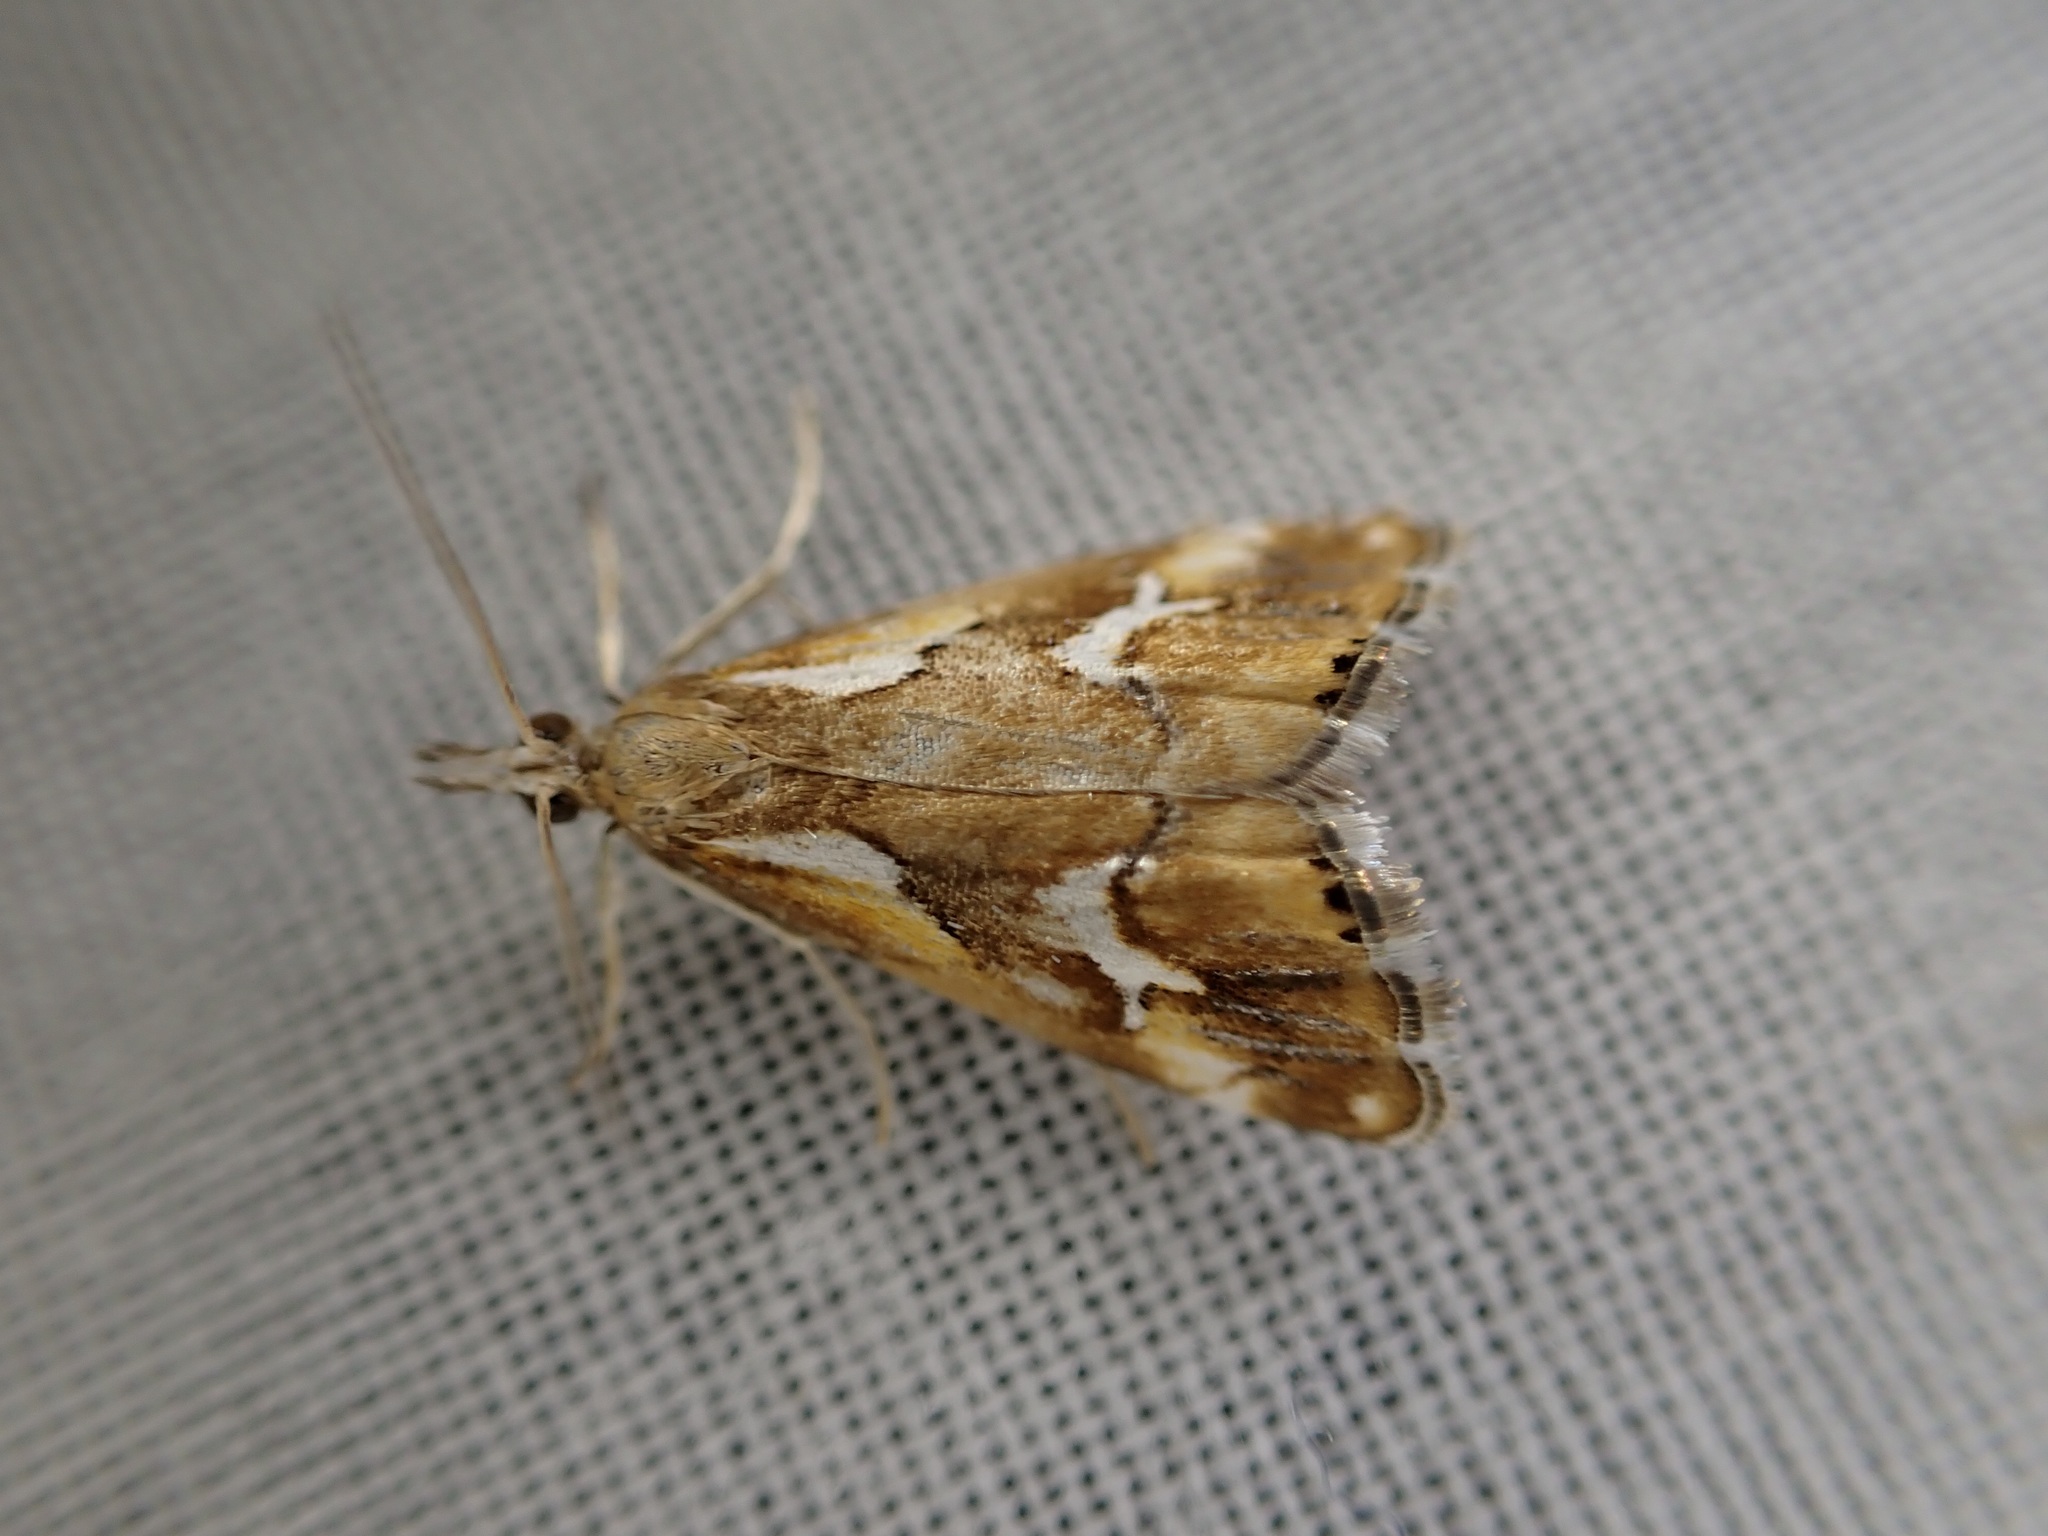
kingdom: Animalia
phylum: Arthropoda
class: Insecta
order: Lepidoptera
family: Crambidae
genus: Glaucocharis
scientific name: Glaucocharis interruptus
